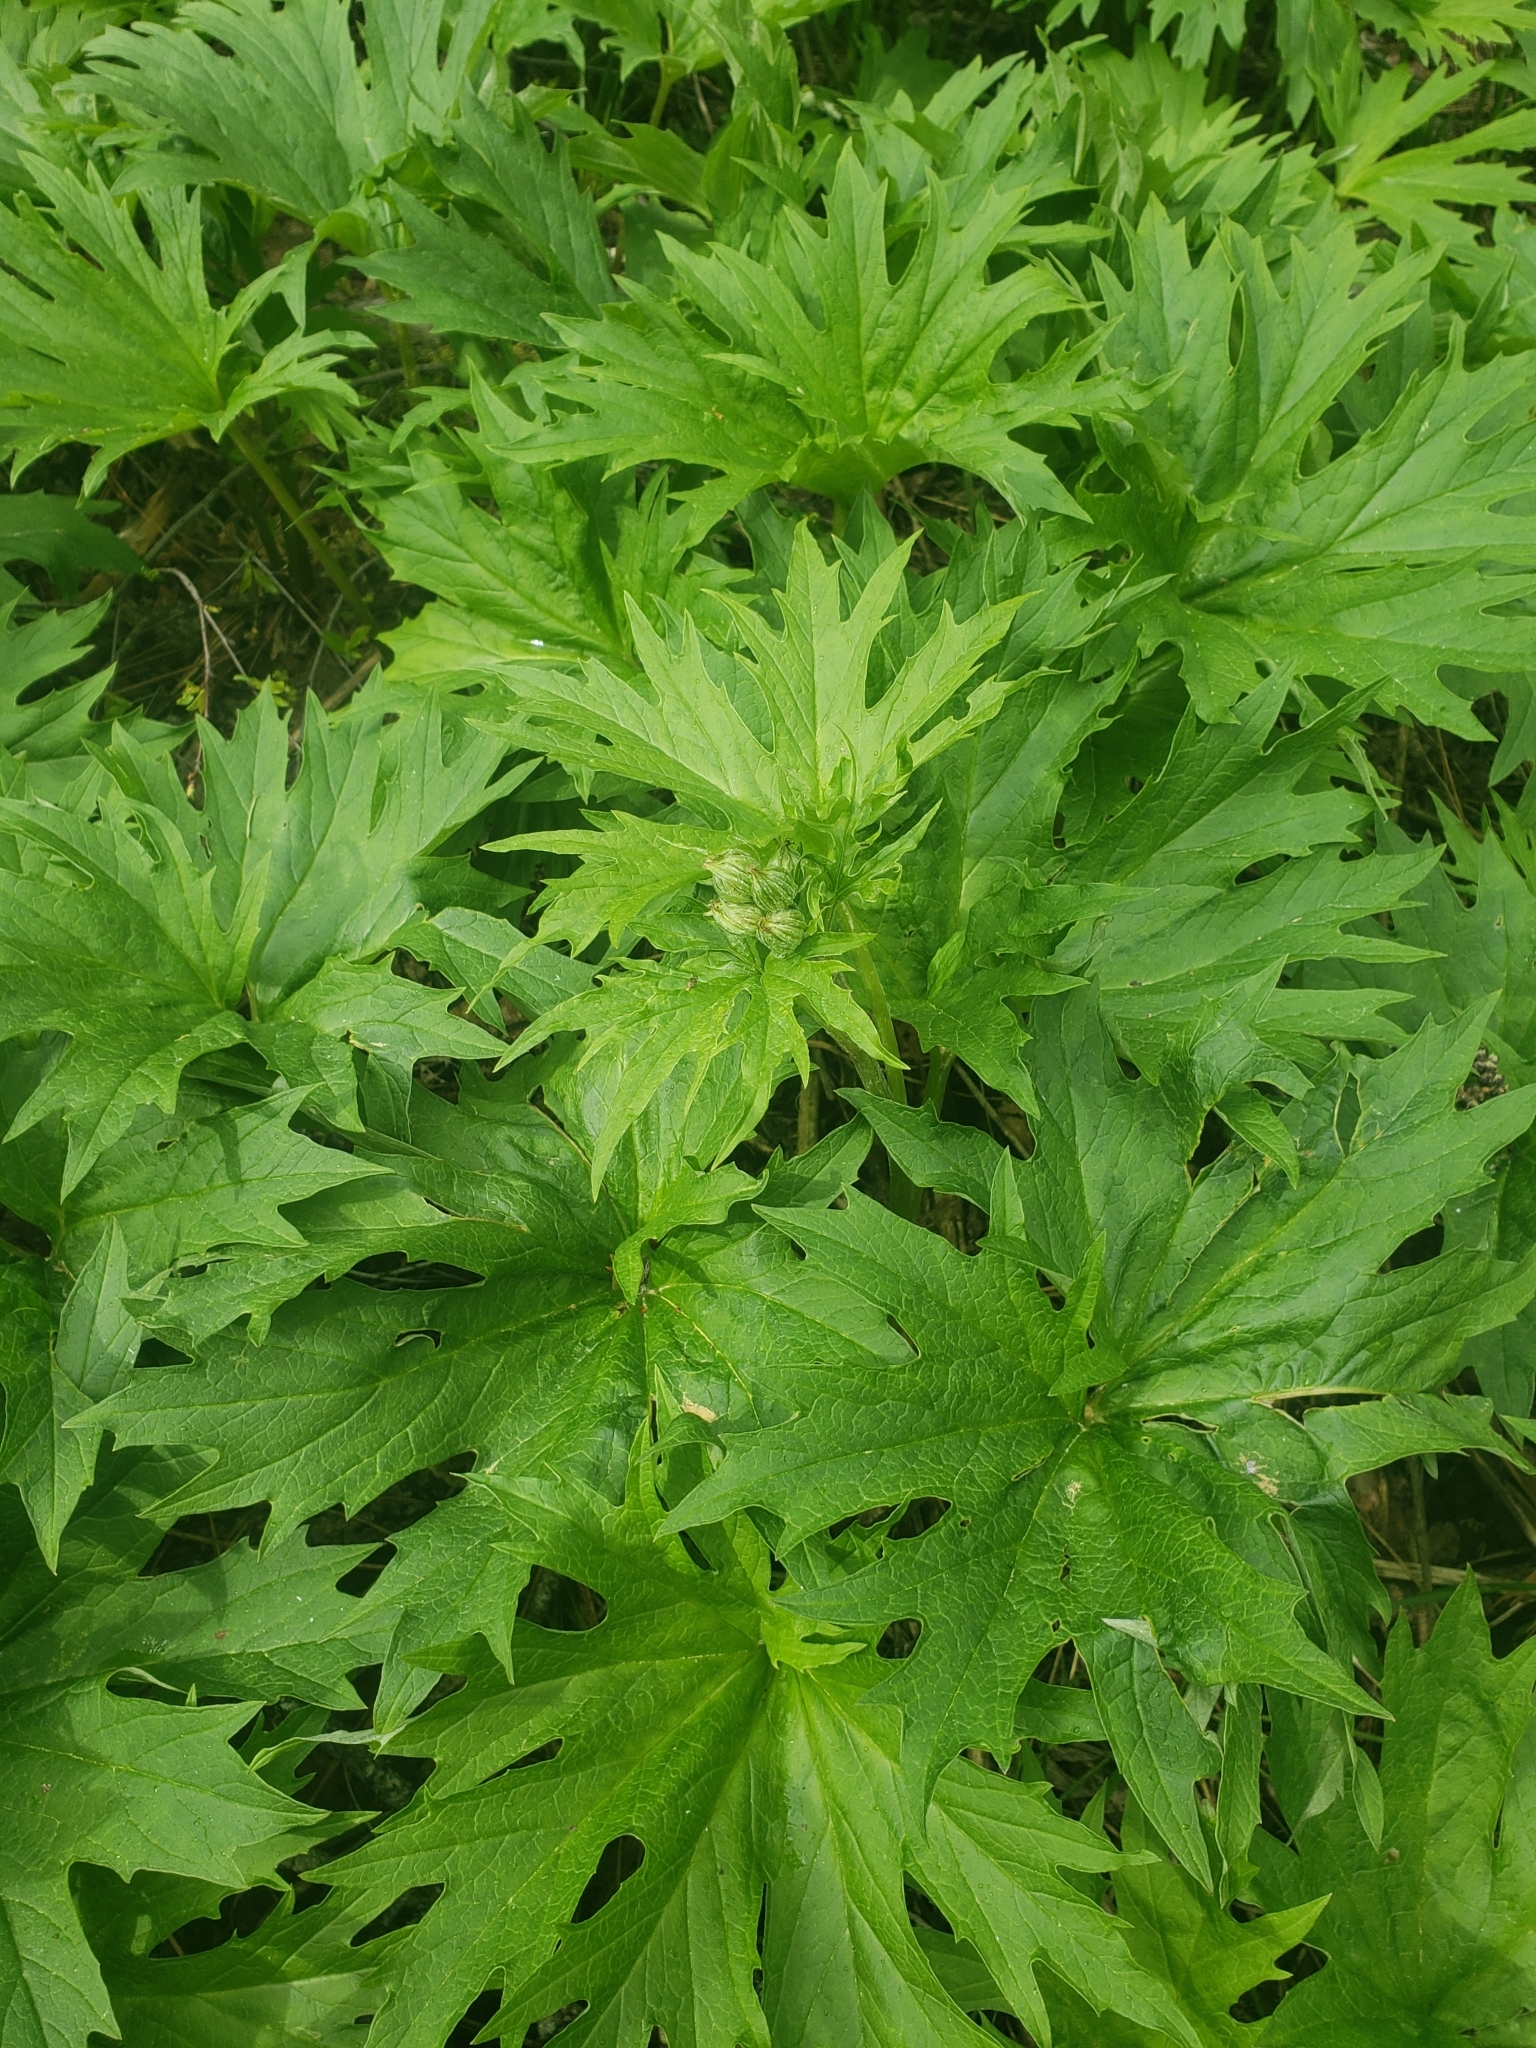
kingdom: Plantae
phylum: Tracheophyta
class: Magnoliopsida
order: Asterales
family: Asteraceae
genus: Cacaliopsis
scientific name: Cacaliopsis nardosmia
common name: Silvercrown
